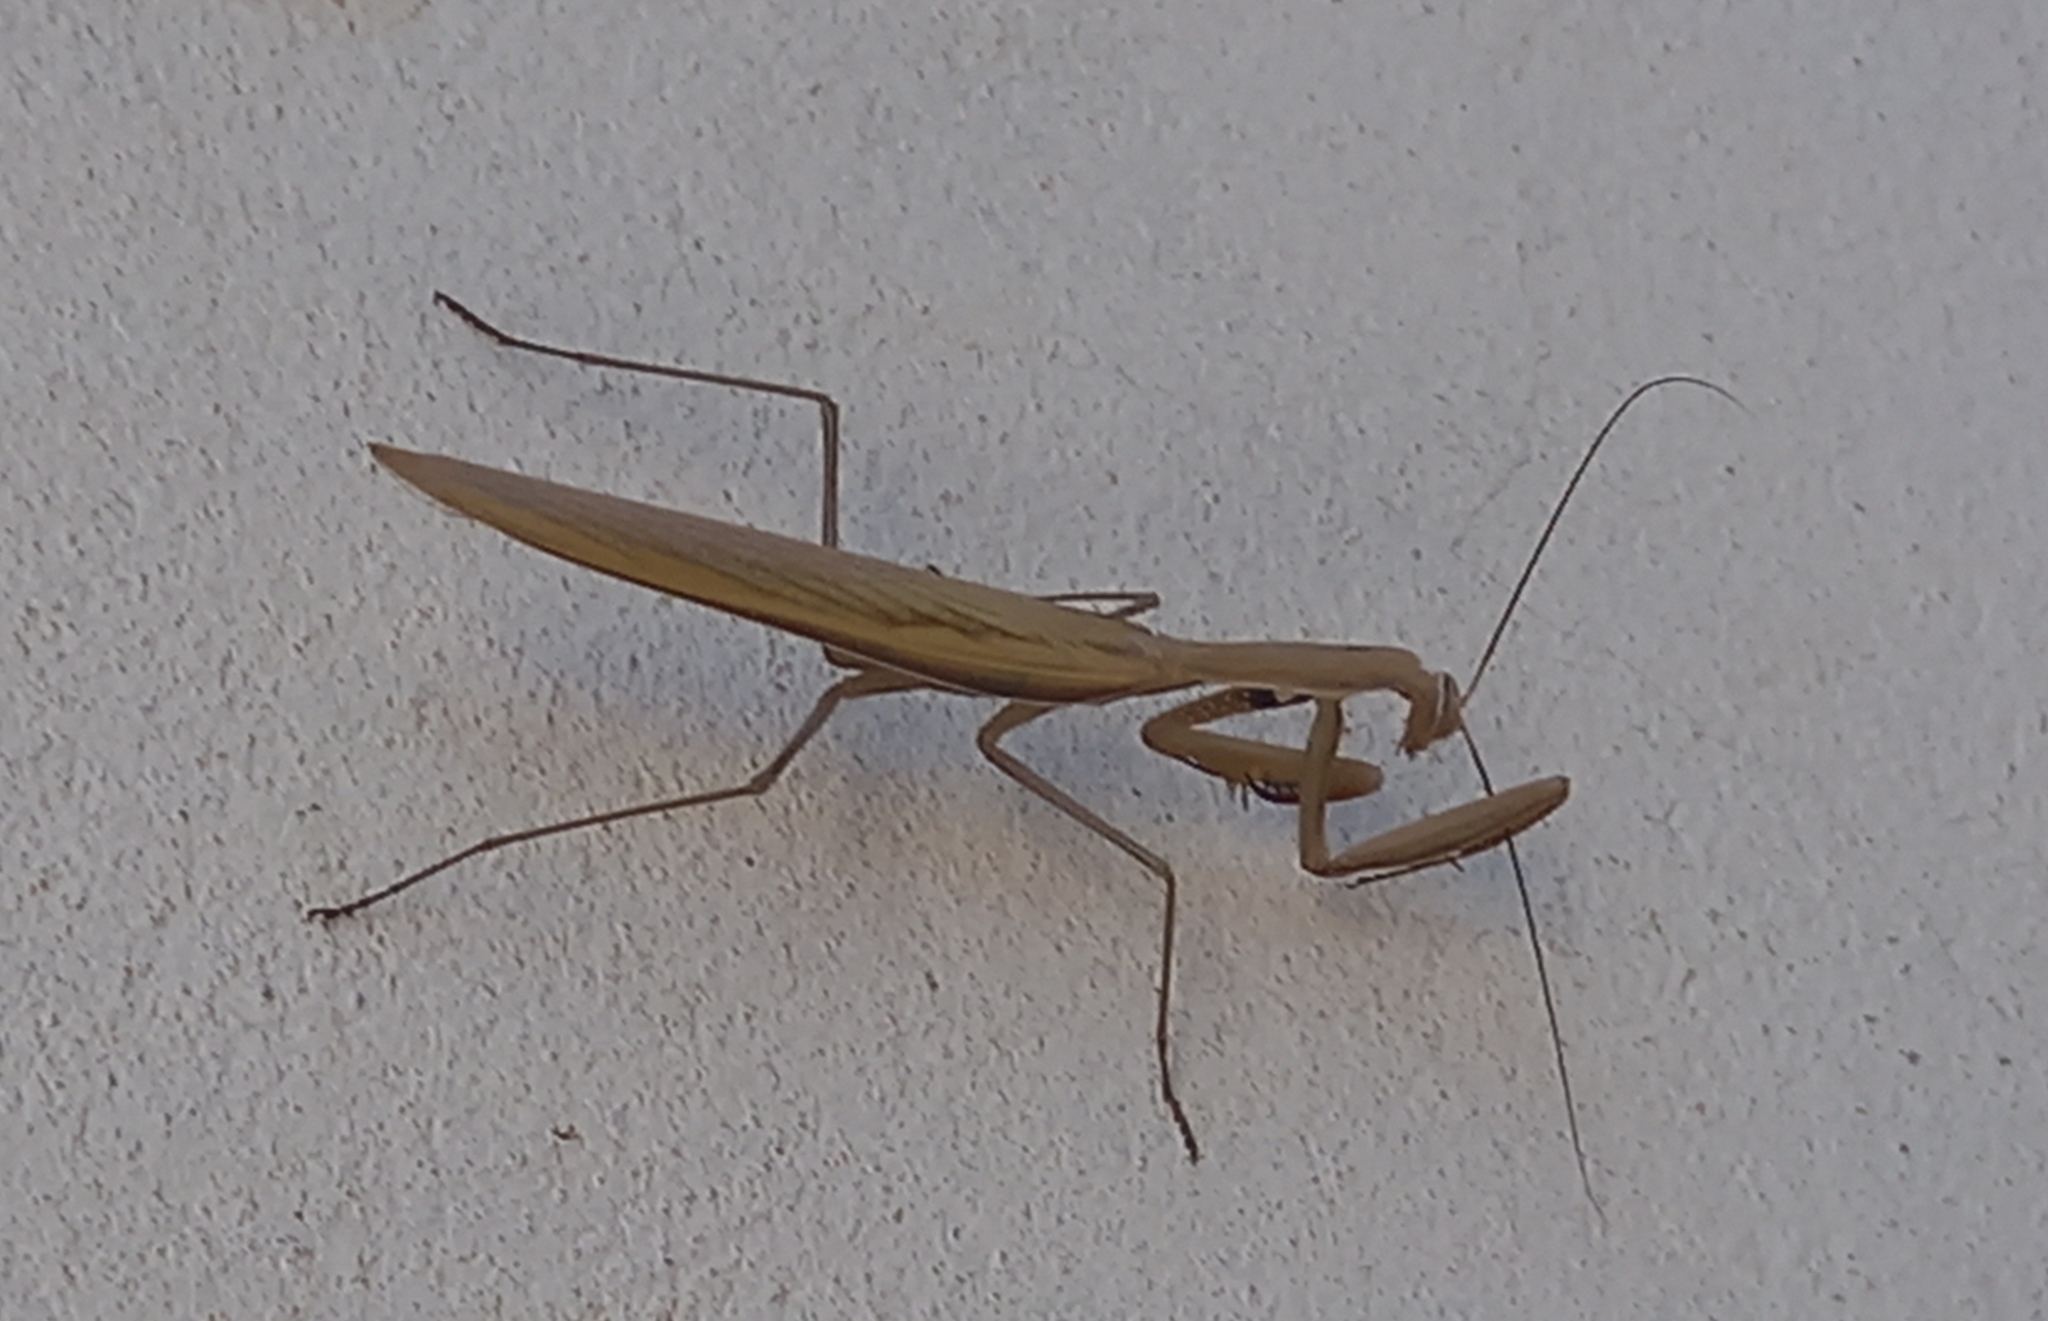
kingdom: Animalia
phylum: Arthropoda
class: Insecta
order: Mantodea
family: Mantidae
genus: Mantis
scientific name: Mantis religiosa
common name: Praying mantis
